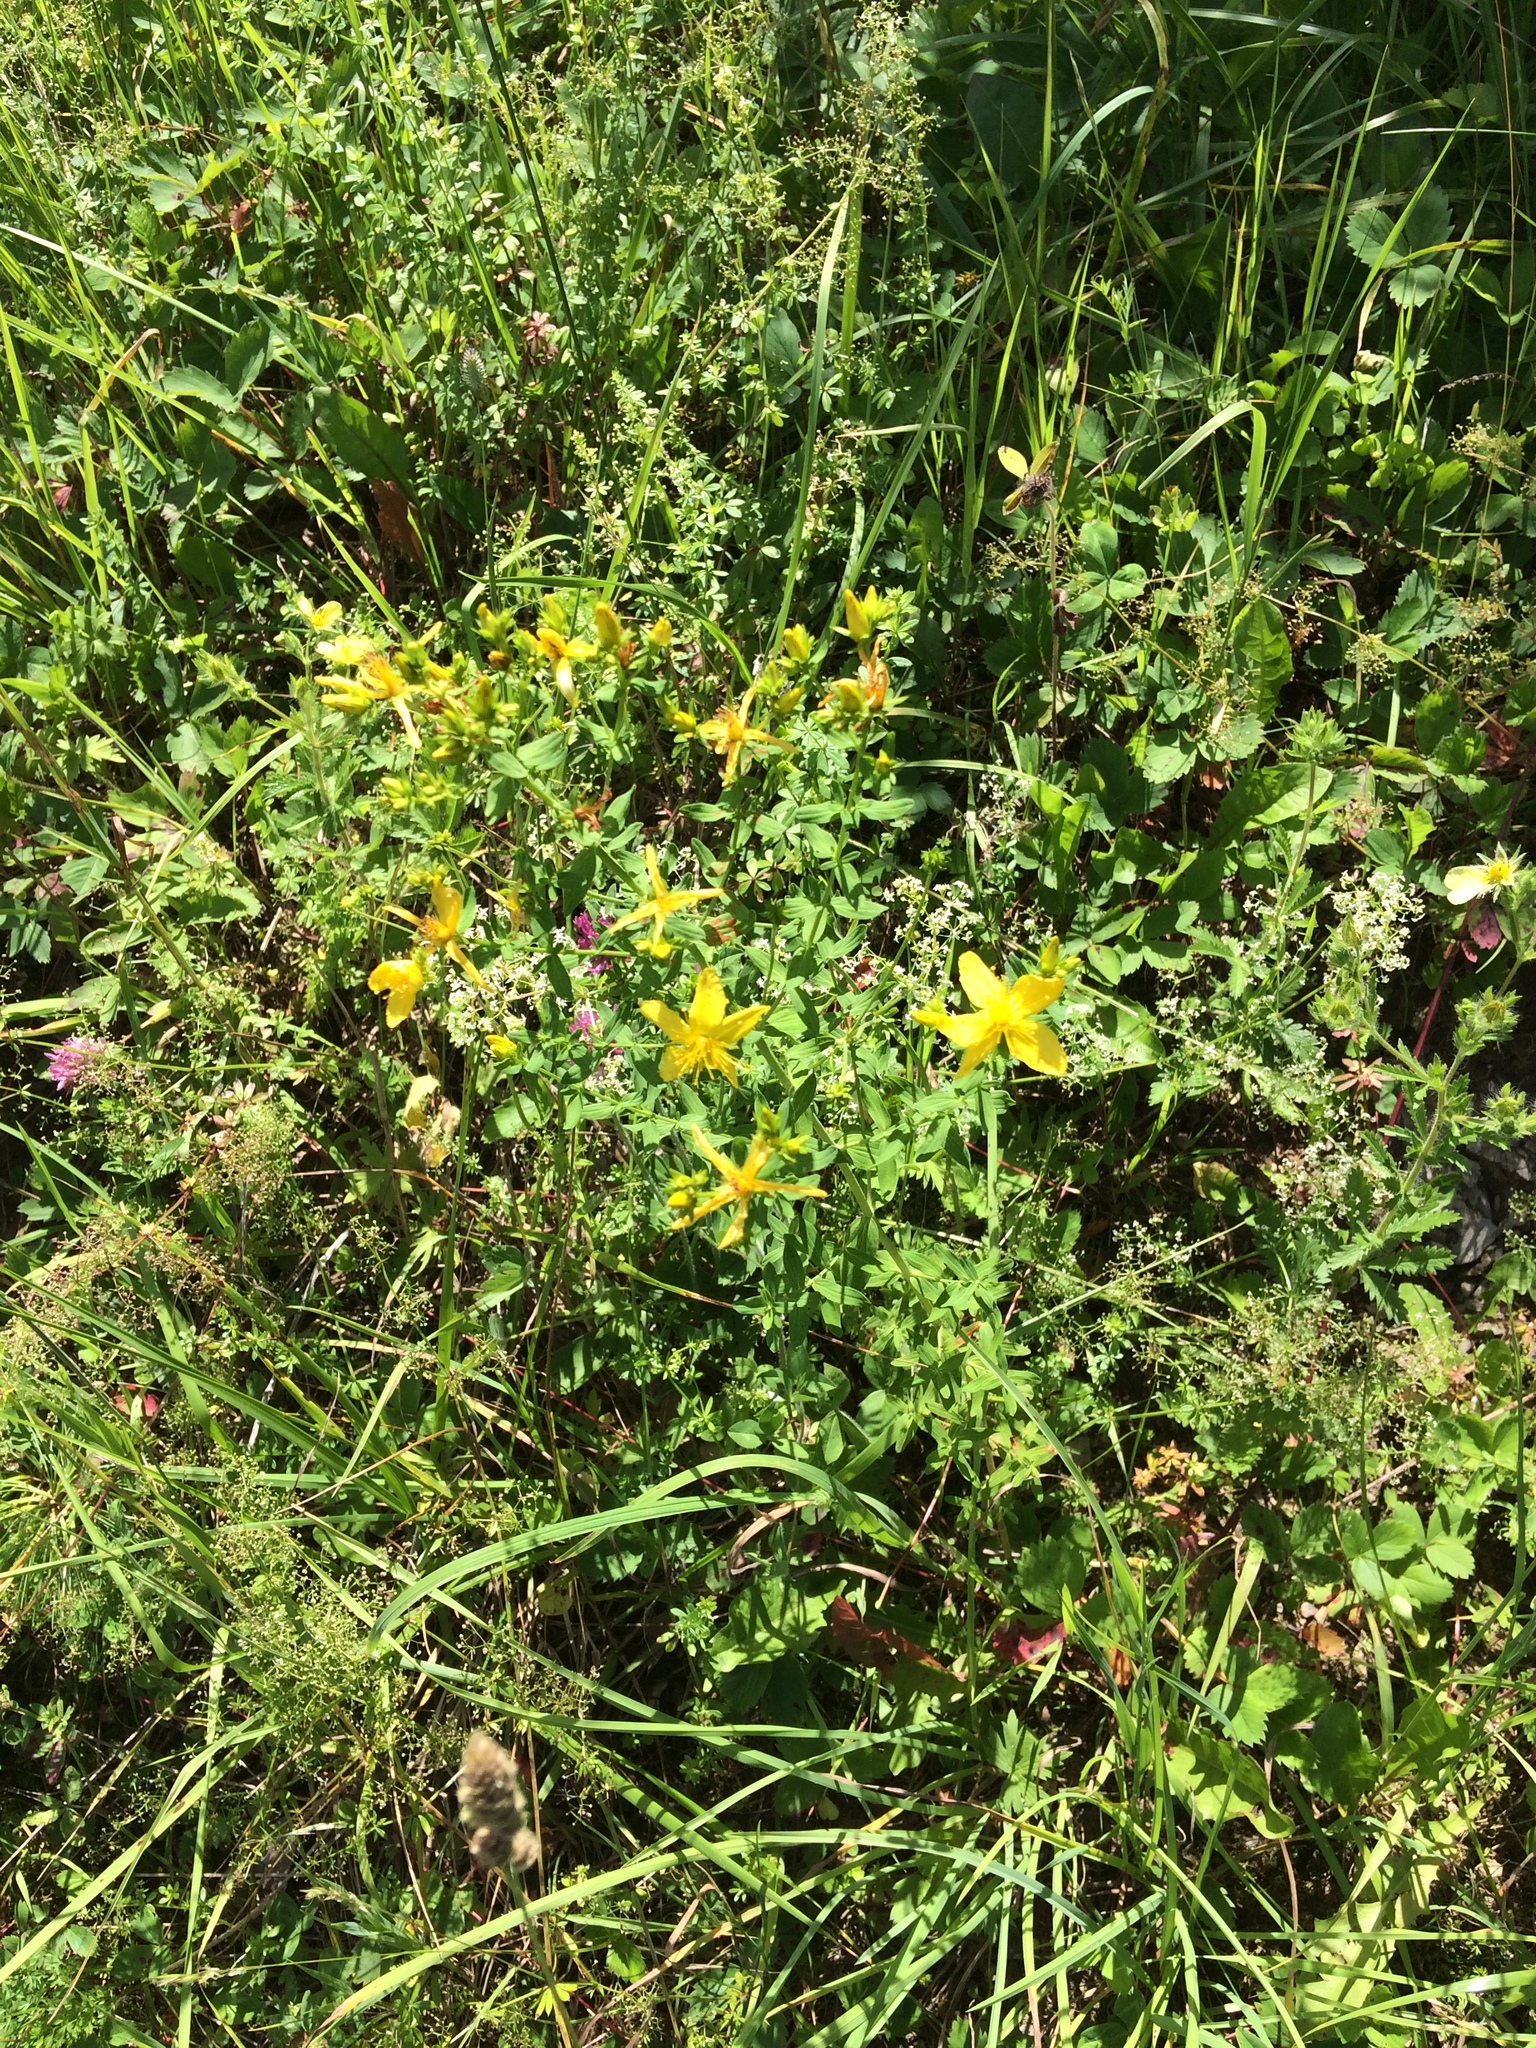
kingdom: Plantae
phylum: Tracheophyta
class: Magnoliopsida
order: Malpighiales
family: Hypericaceae
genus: Hypericum
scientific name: Hypericum perforatum
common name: Common st. johnswort
